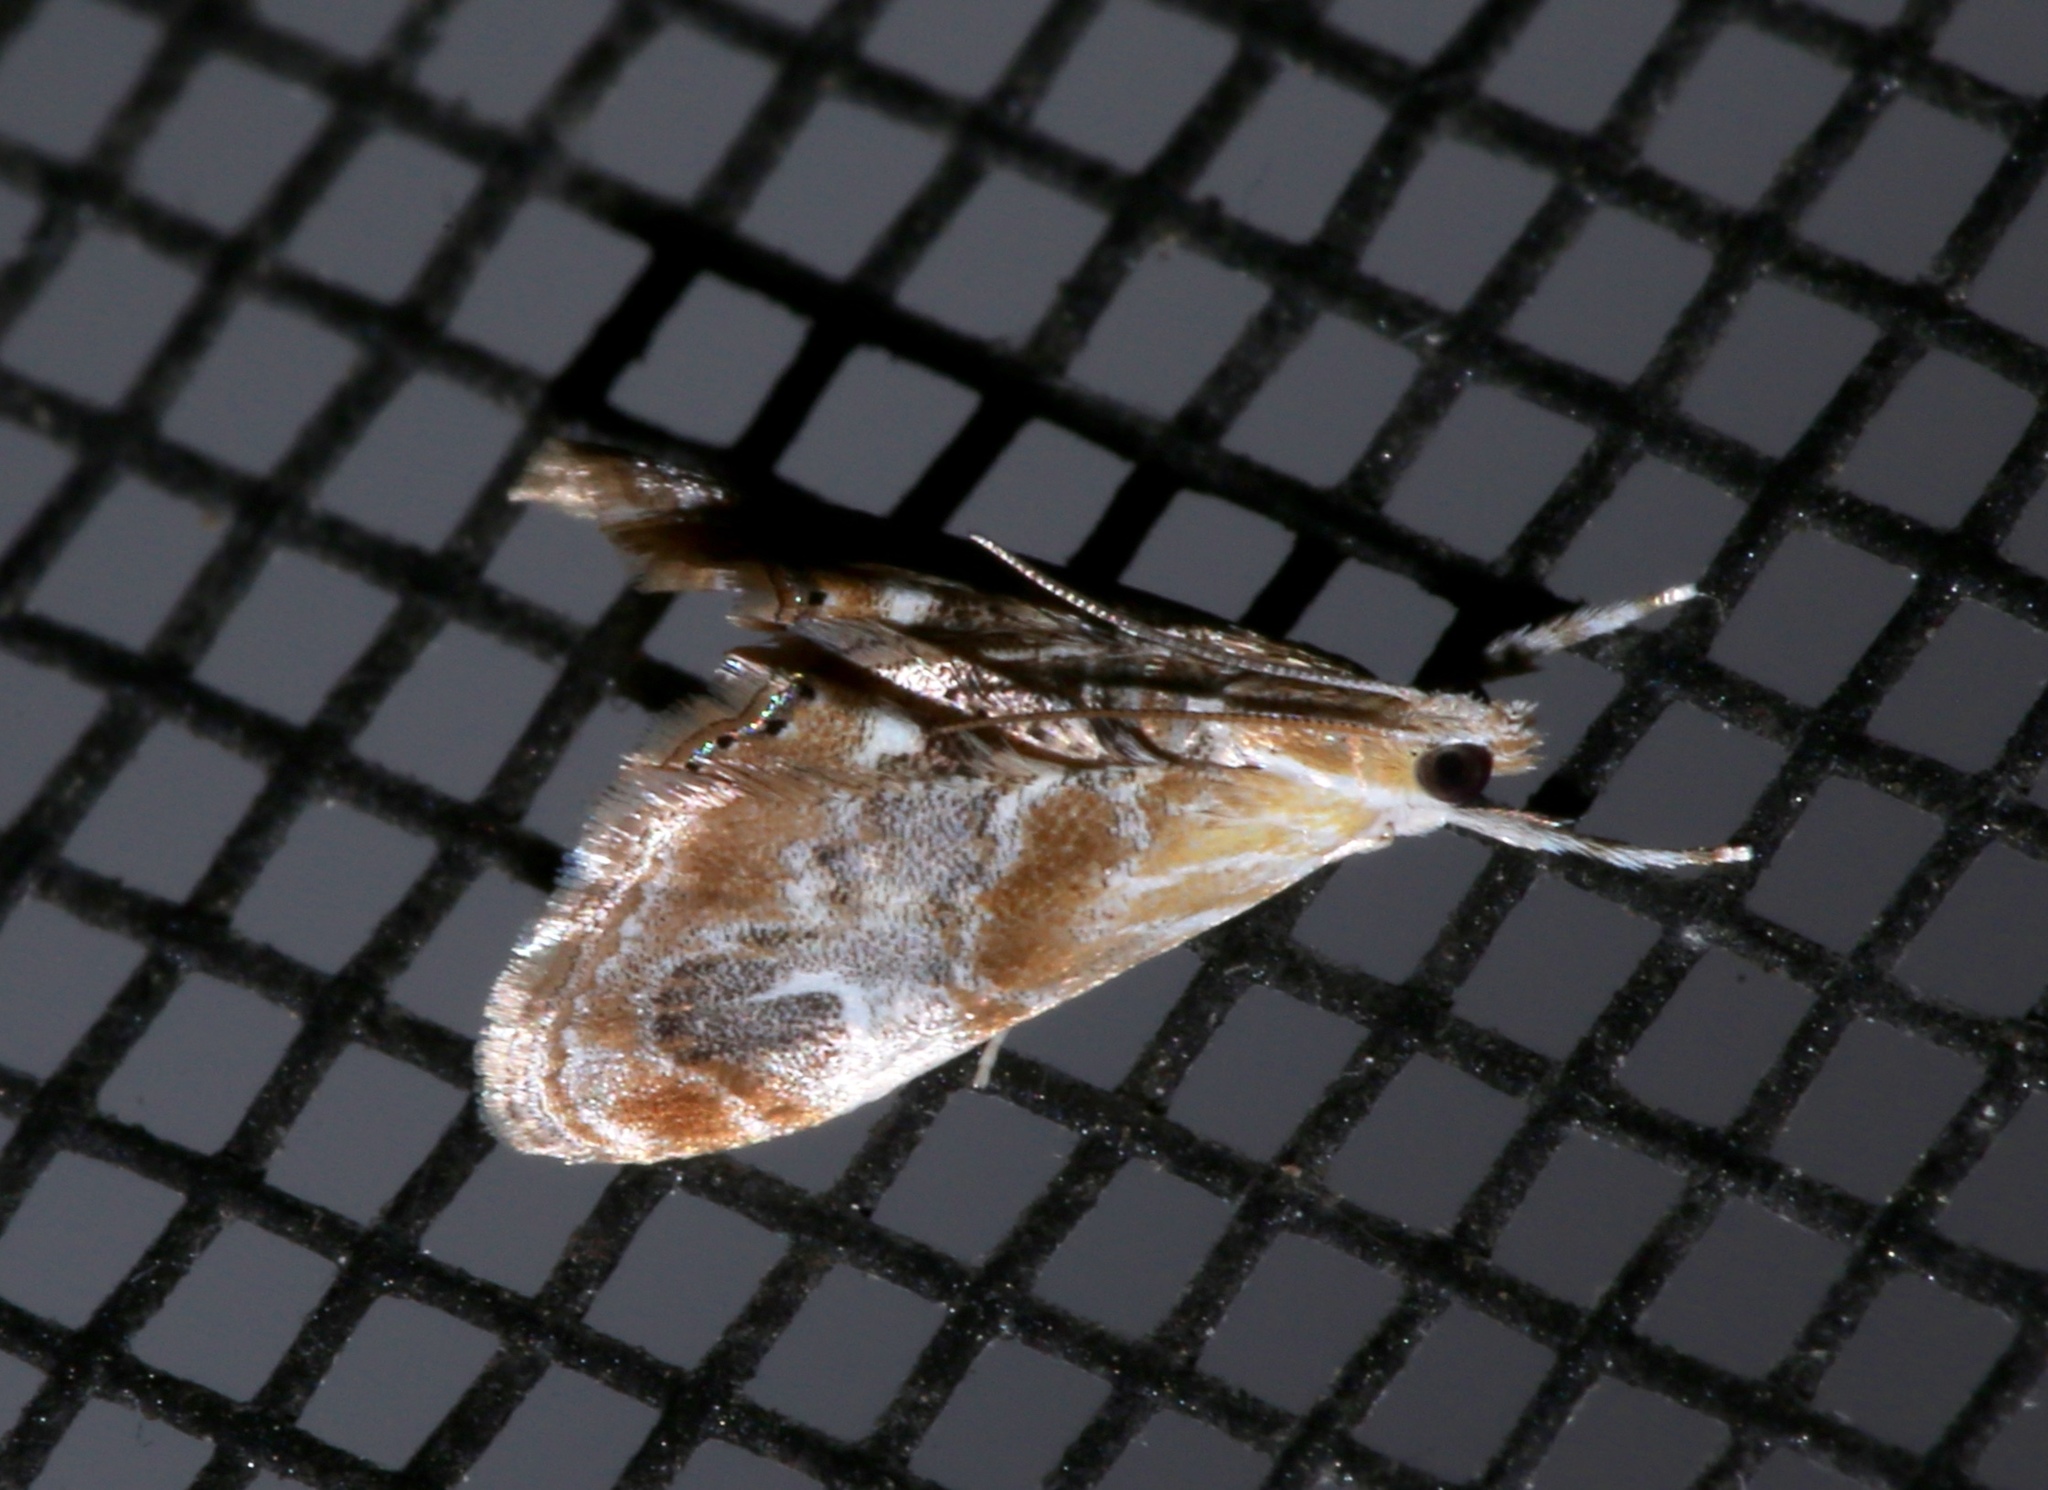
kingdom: Animalia
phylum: Arthropoda
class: Insecta
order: Lepidoptera
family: Crambidae
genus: Dicymolomia
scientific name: Dicymolomia julianalis
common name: Julia's dicymolomia moth
